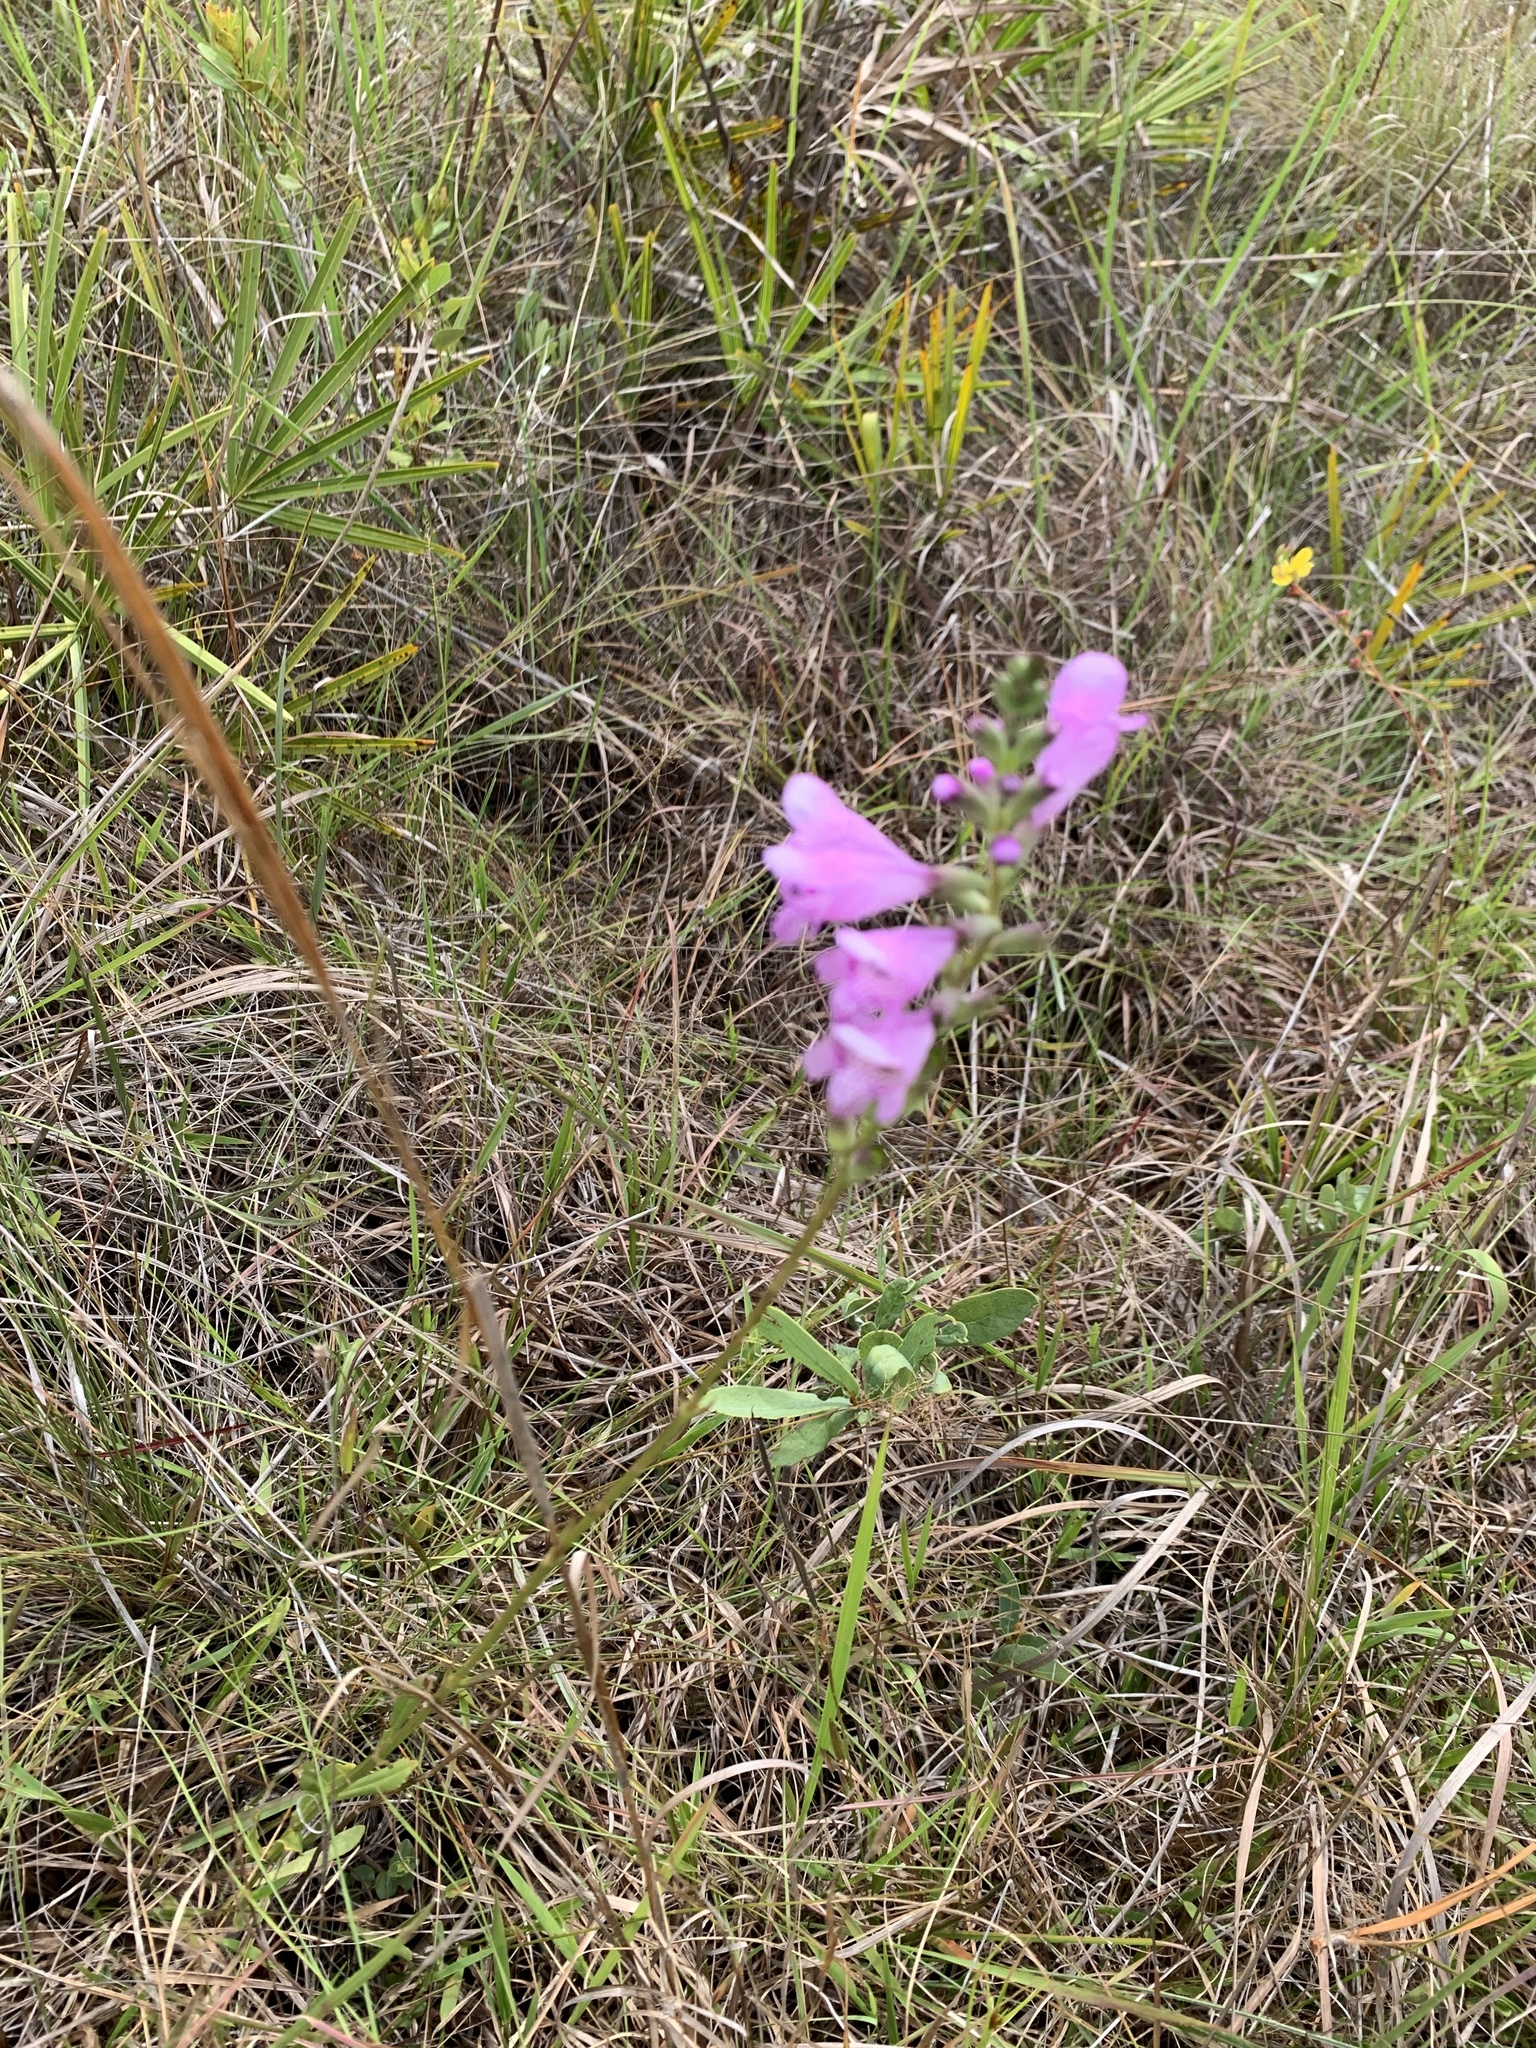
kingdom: Plantae
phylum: Tracheophyta
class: Magnoliopsida
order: Lamiales
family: Lamiaceae
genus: Physostegia
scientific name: Physostegia purpurea
